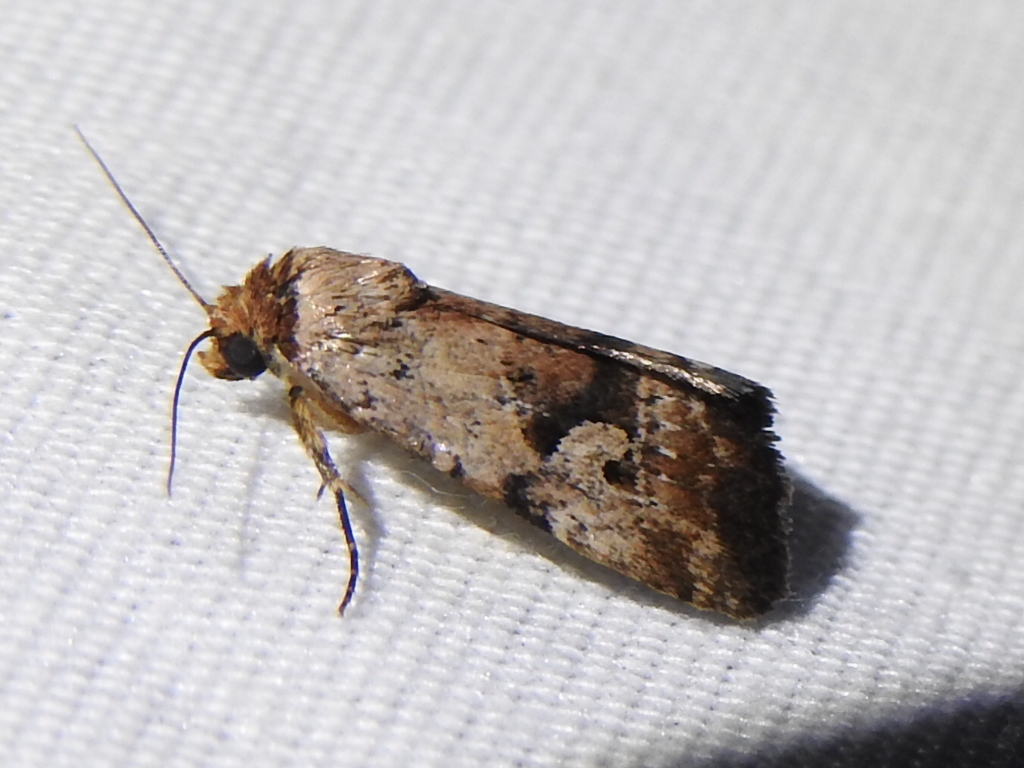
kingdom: Animalia
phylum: Arthropoda
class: Insecta
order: Lepidoptera
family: Noctuidae
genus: Elaphria
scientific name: Elaphria festivoides
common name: Festive midget
